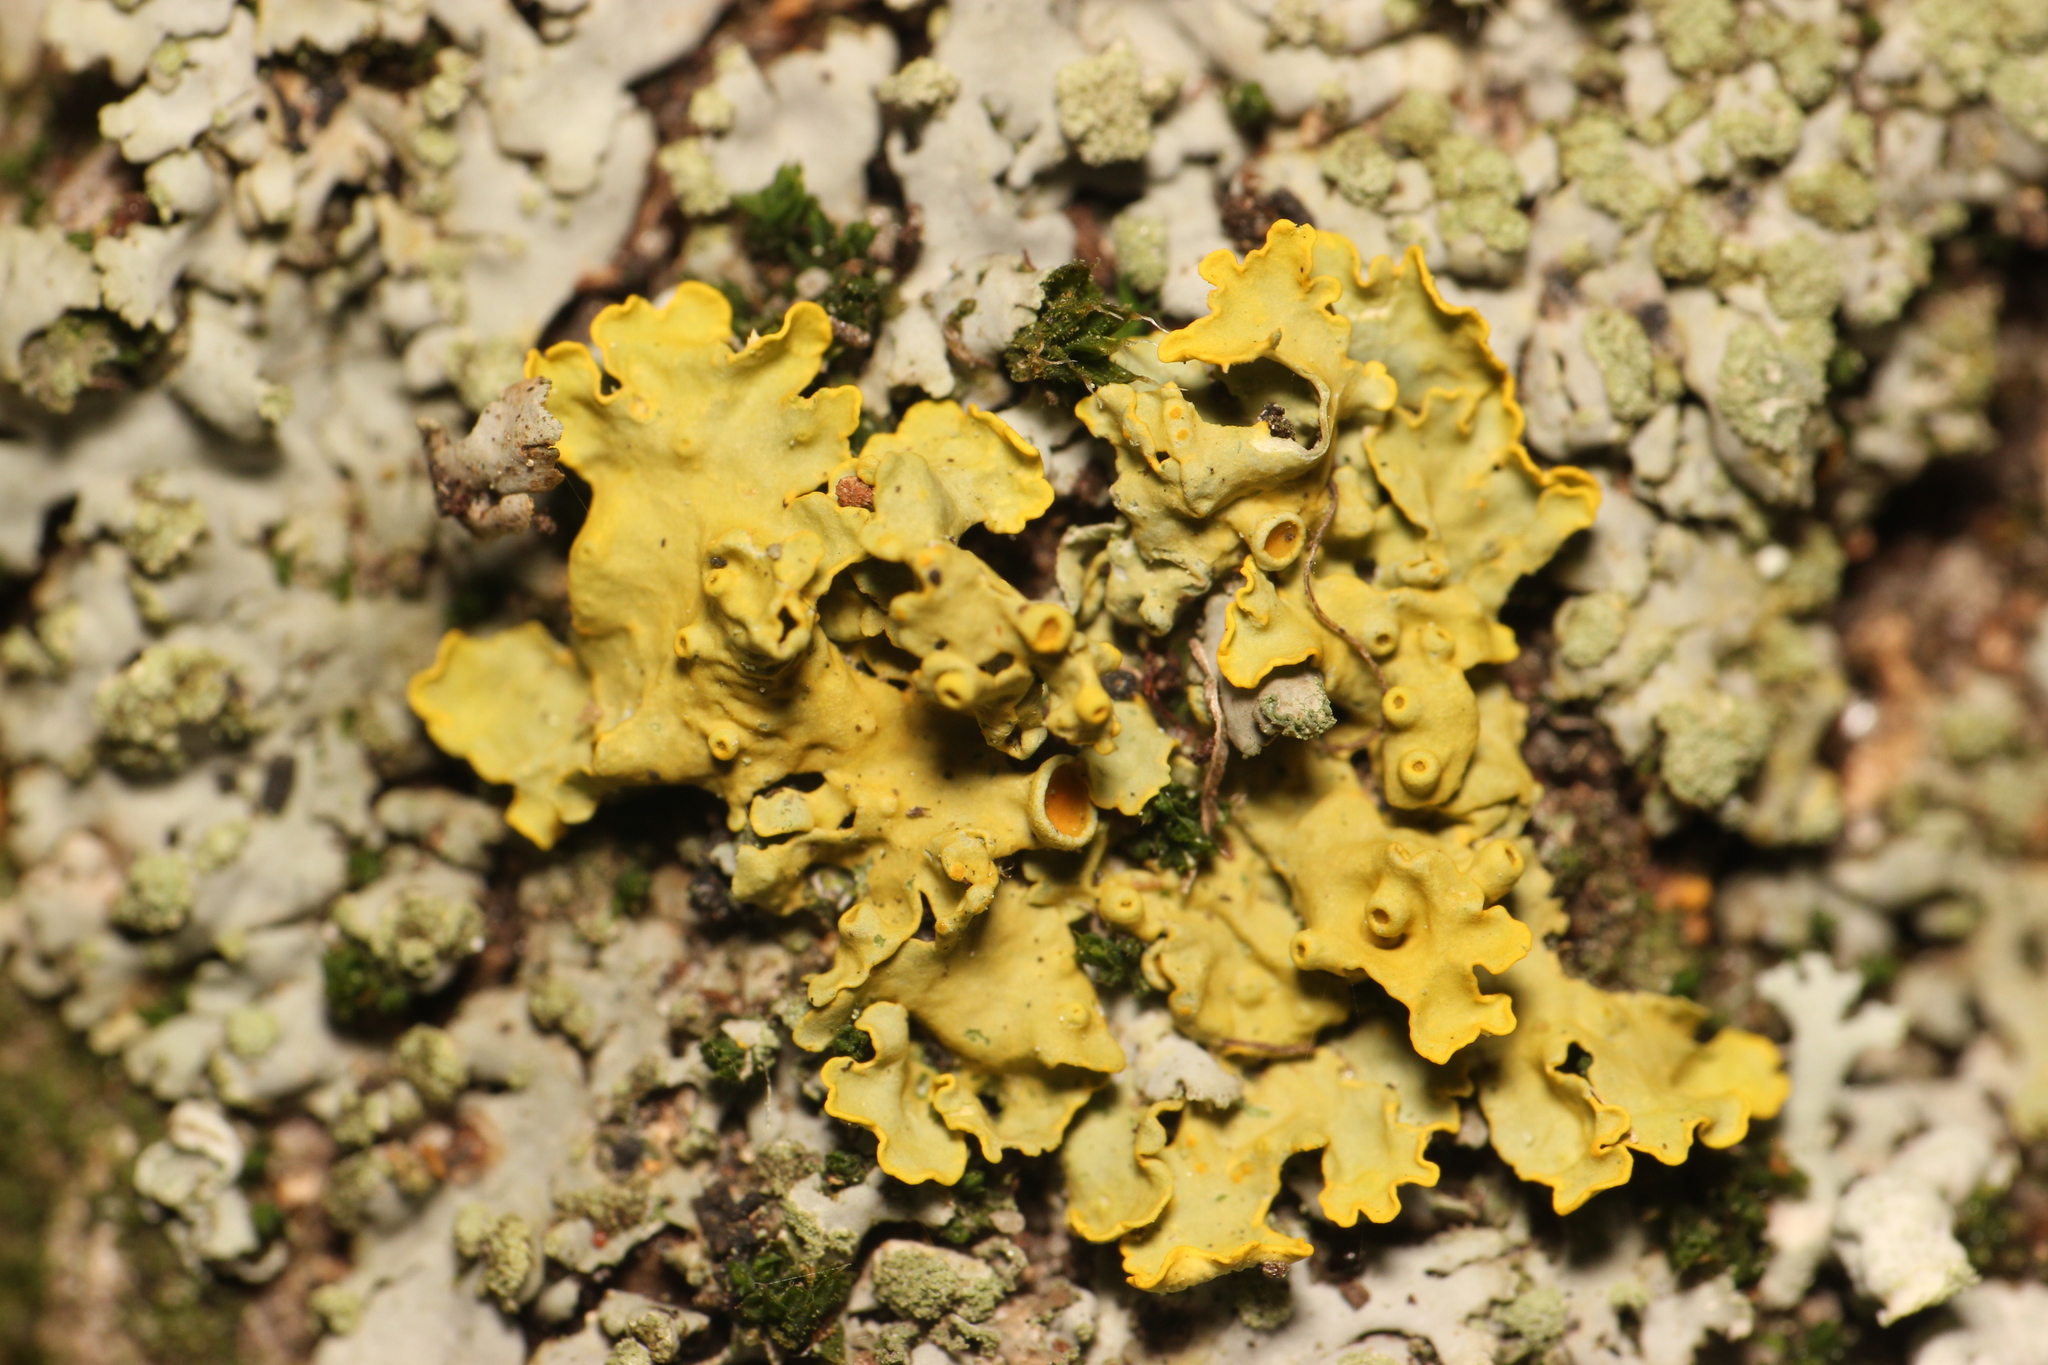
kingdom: Fungi
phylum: Ascomycota
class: Lecanoromycetes
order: Teloschistales
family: Teloschistaceae
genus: Xanthoria
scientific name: Xanthoria parietina
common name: Common orange lichen
